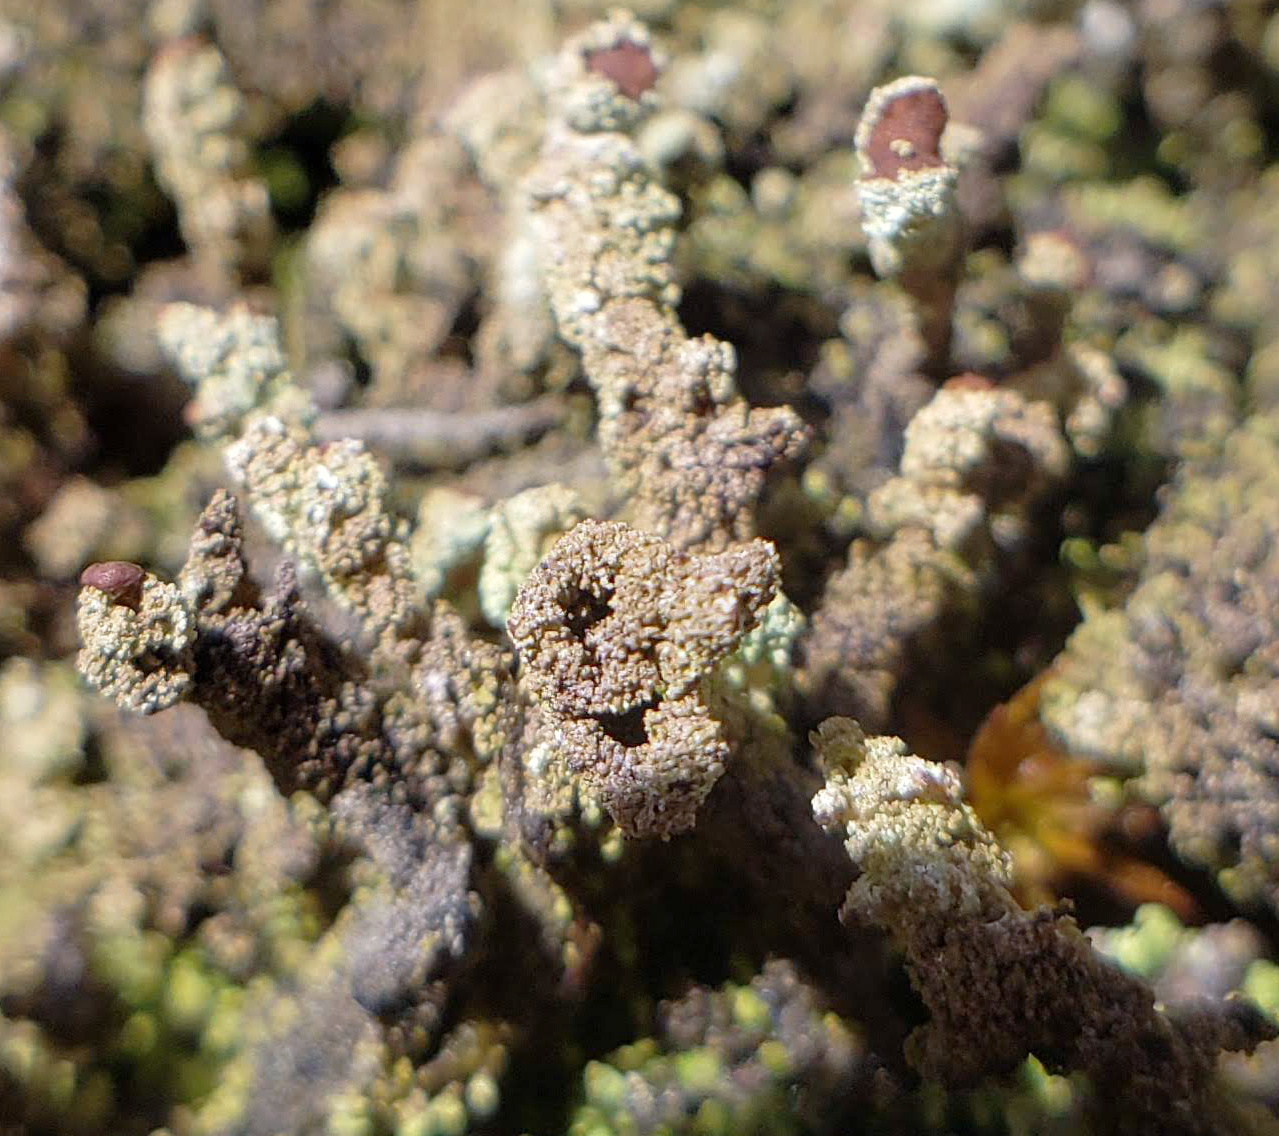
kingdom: Fungi
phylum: Ascomycota
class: Lecanoromycetes
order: Lecanorales
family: Cladoniaceae
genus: Cladonia
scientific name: Cladonia squamosa
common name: Dragon horn
